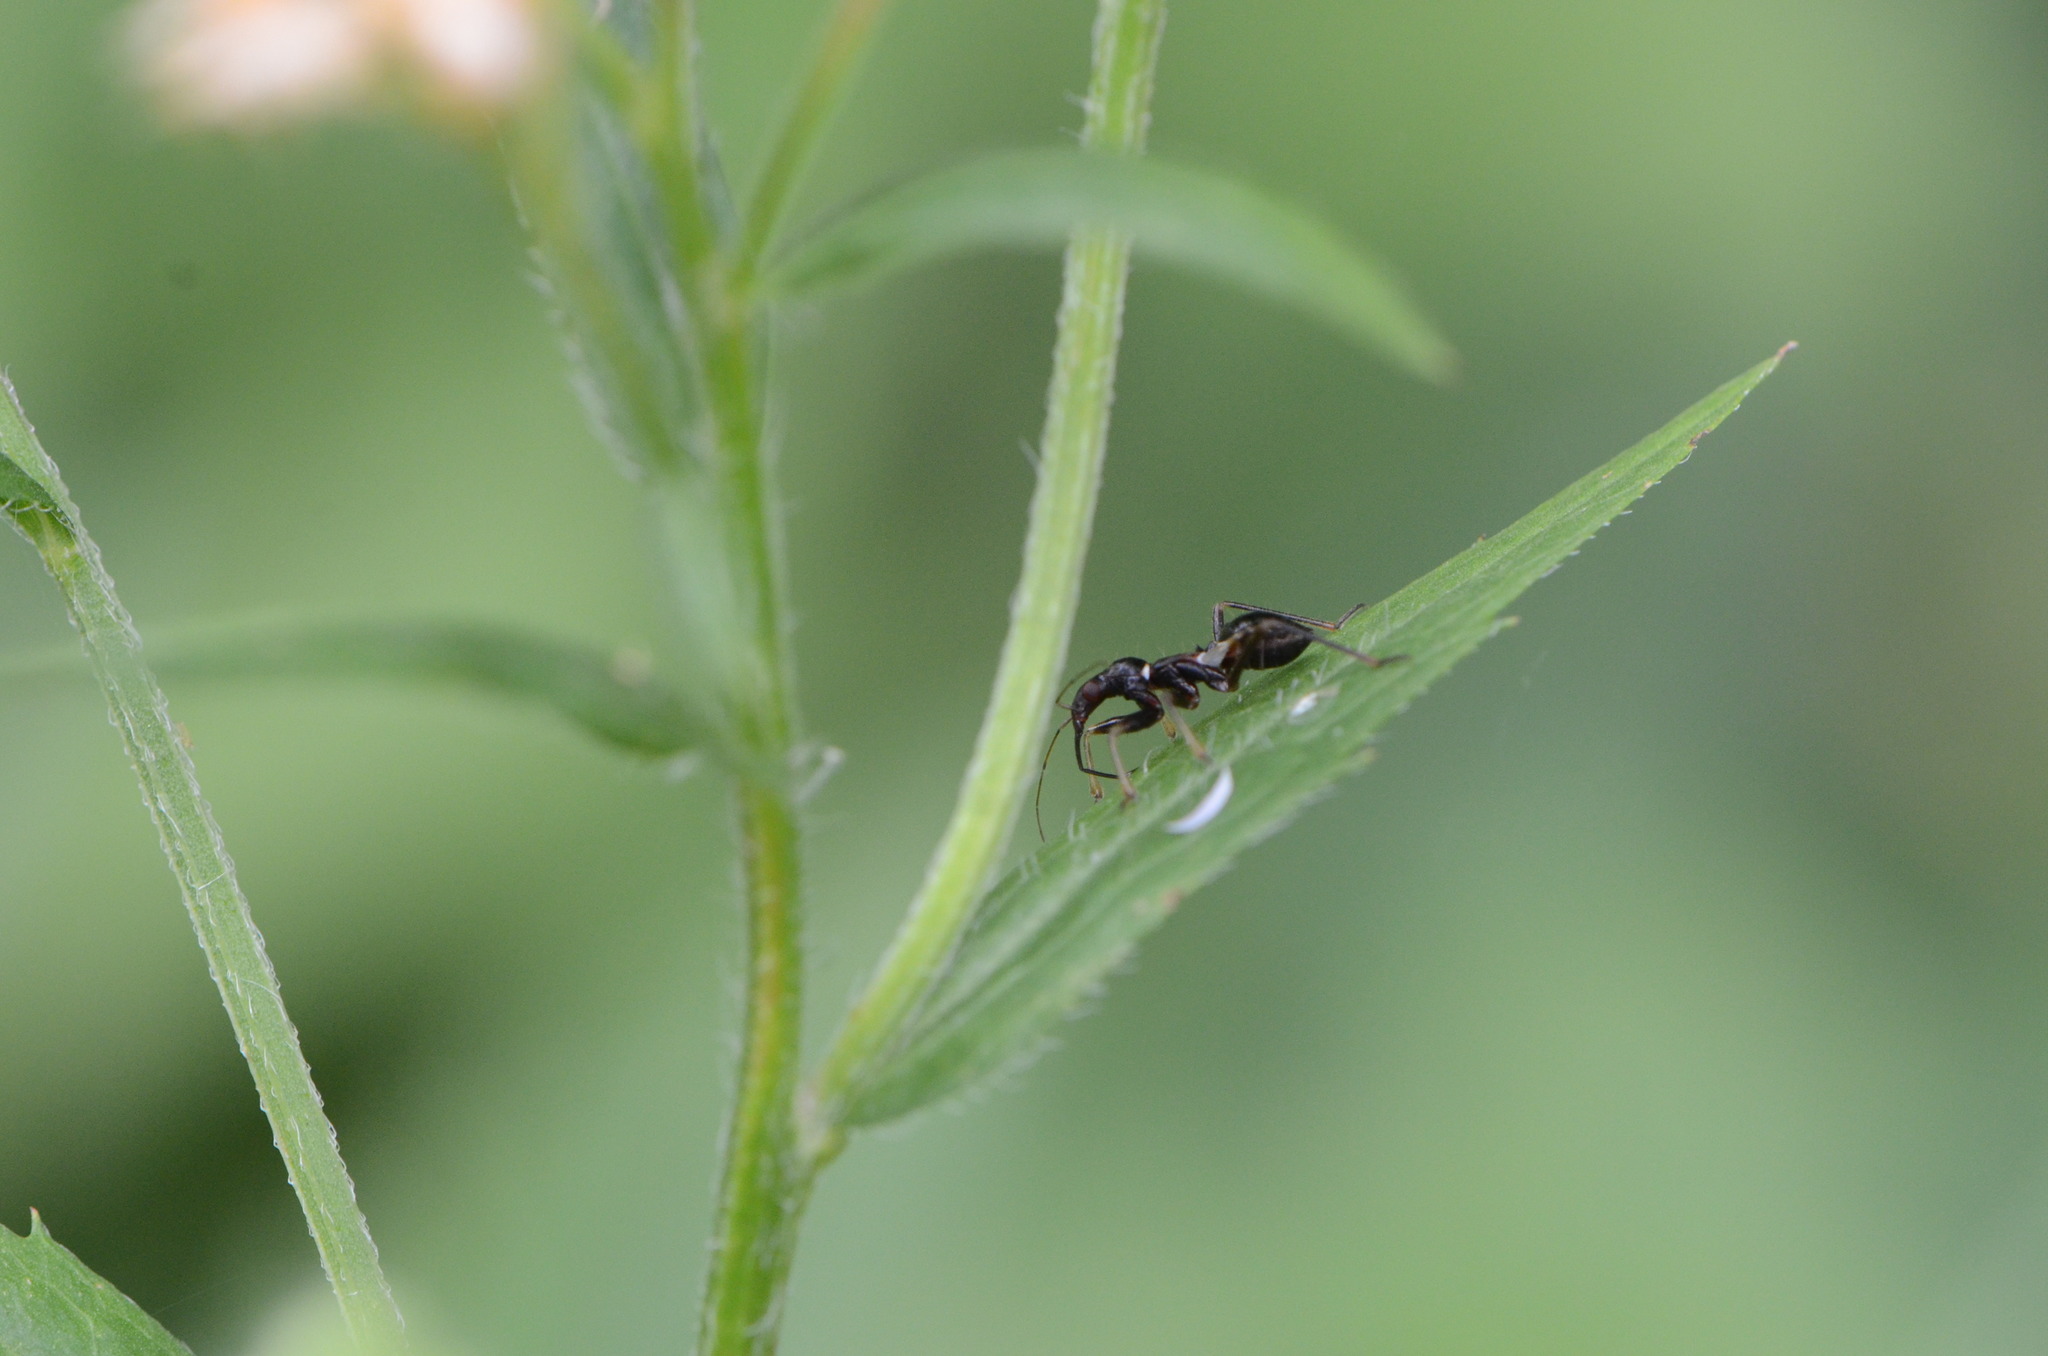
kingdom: Animalia
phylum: Arthropoda
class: Insecta
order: Hemiptera
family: Nabidae
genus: Himacerus
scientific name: Himacerus mirmicoides
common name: Ant damsel bug
